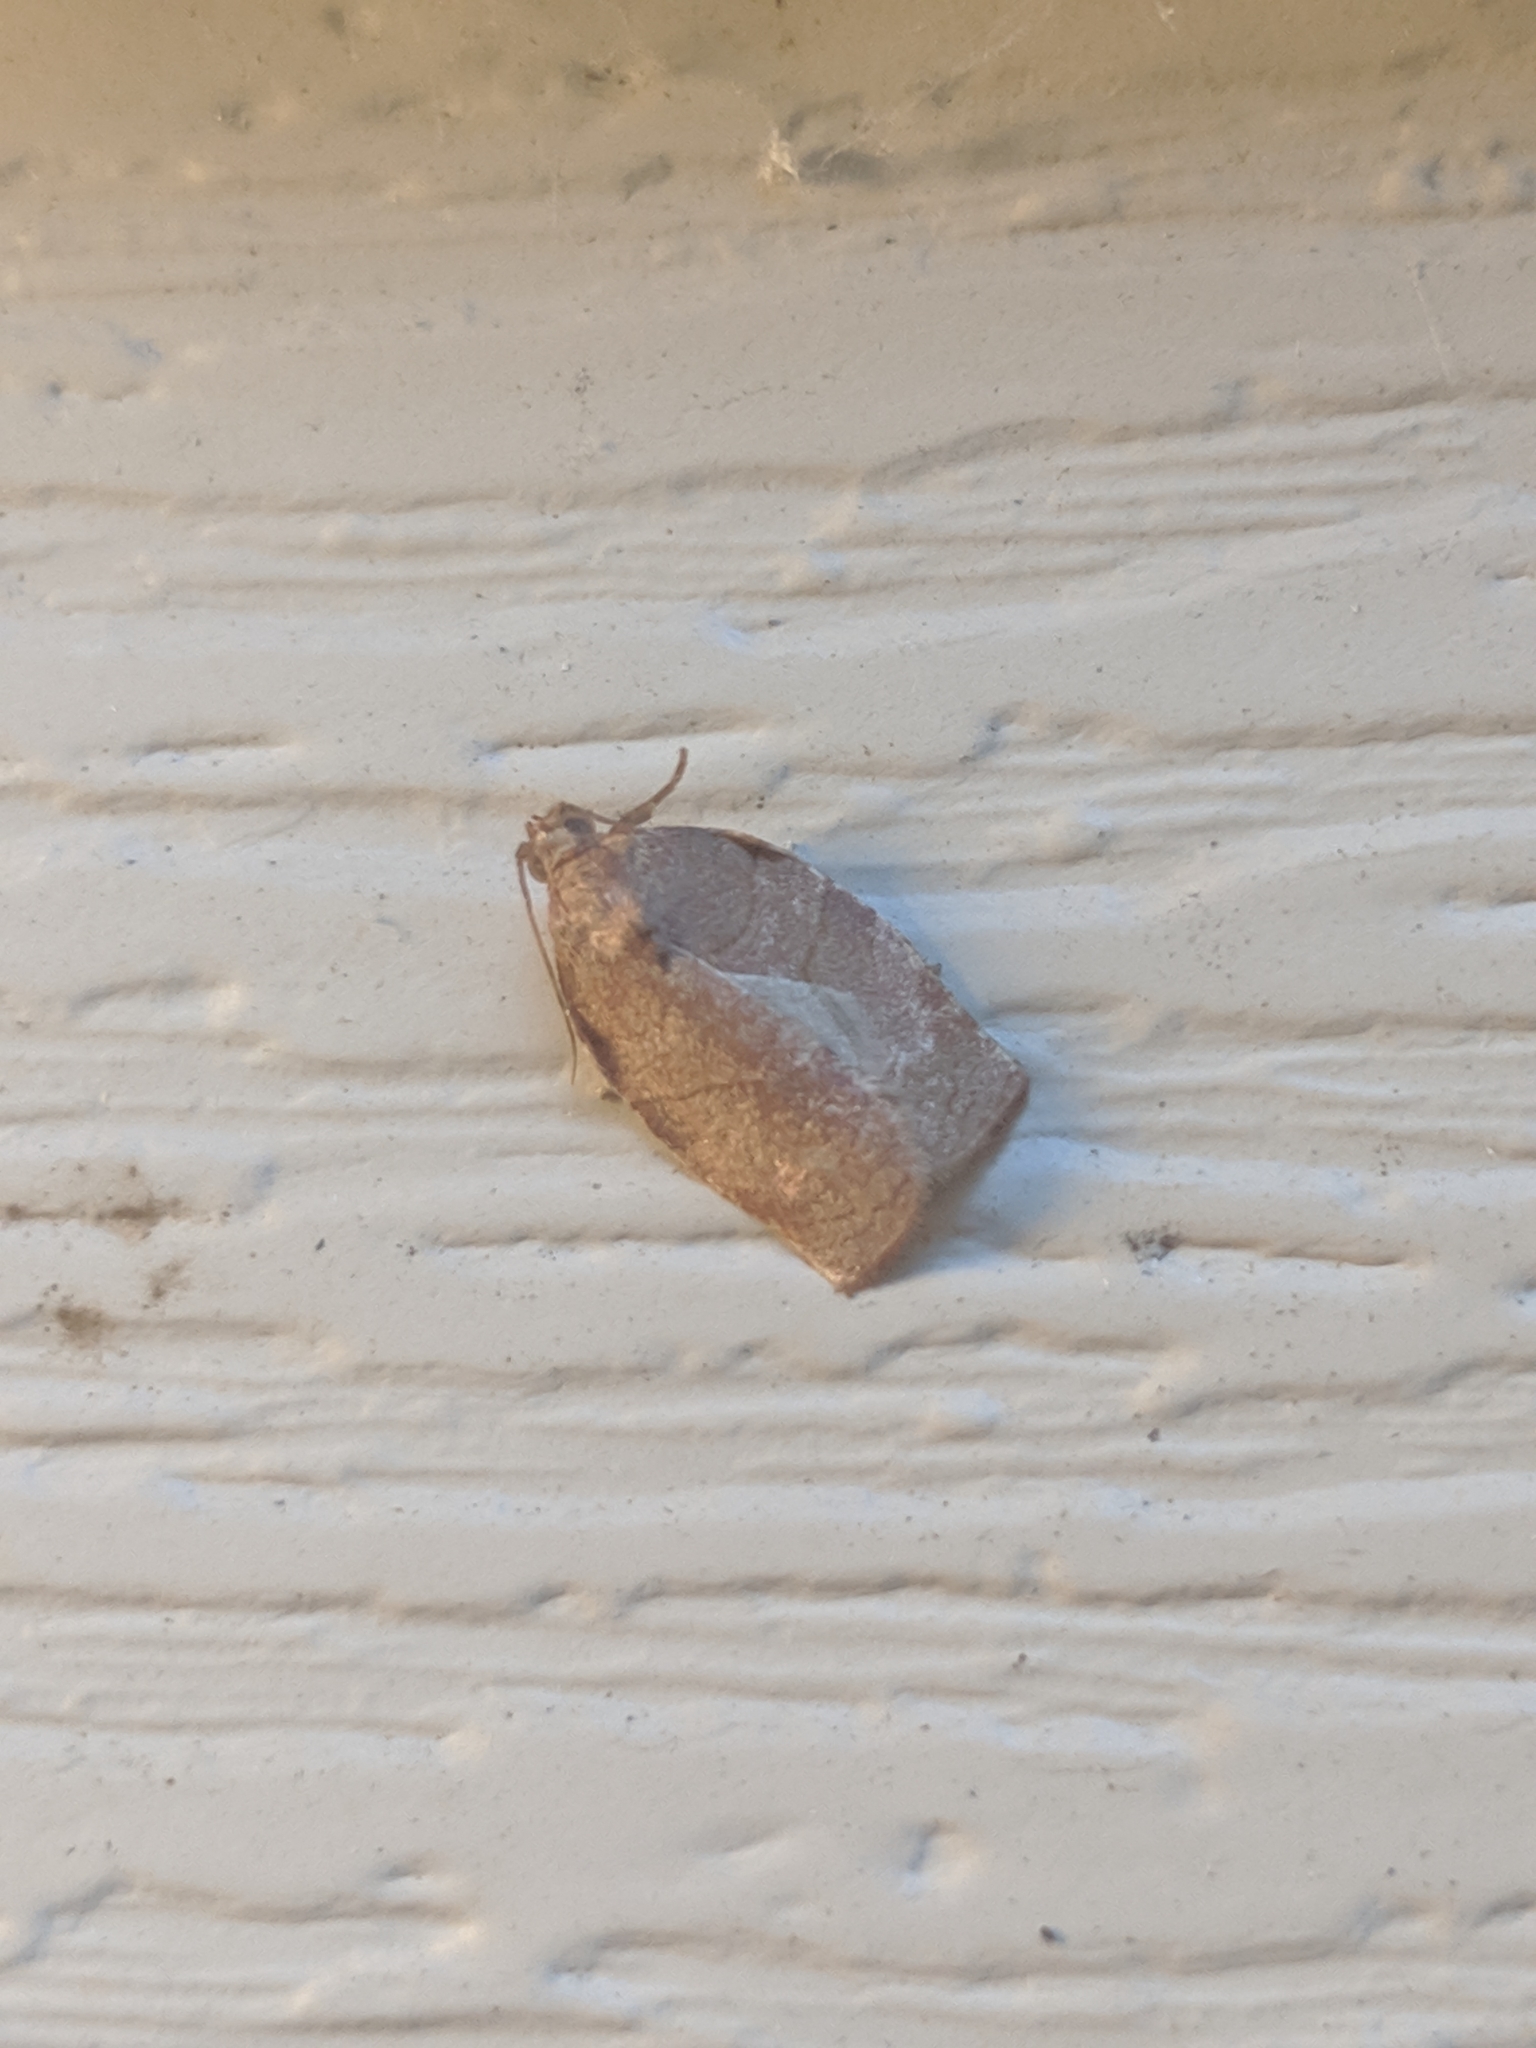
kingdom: Animalia
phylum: Arthropoda
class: Insecta
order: Lepidoptera
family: Tortricidae
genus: Choristoneura
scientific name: Choristoneura rosaceana
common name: Oblique-banded leafroller moth
